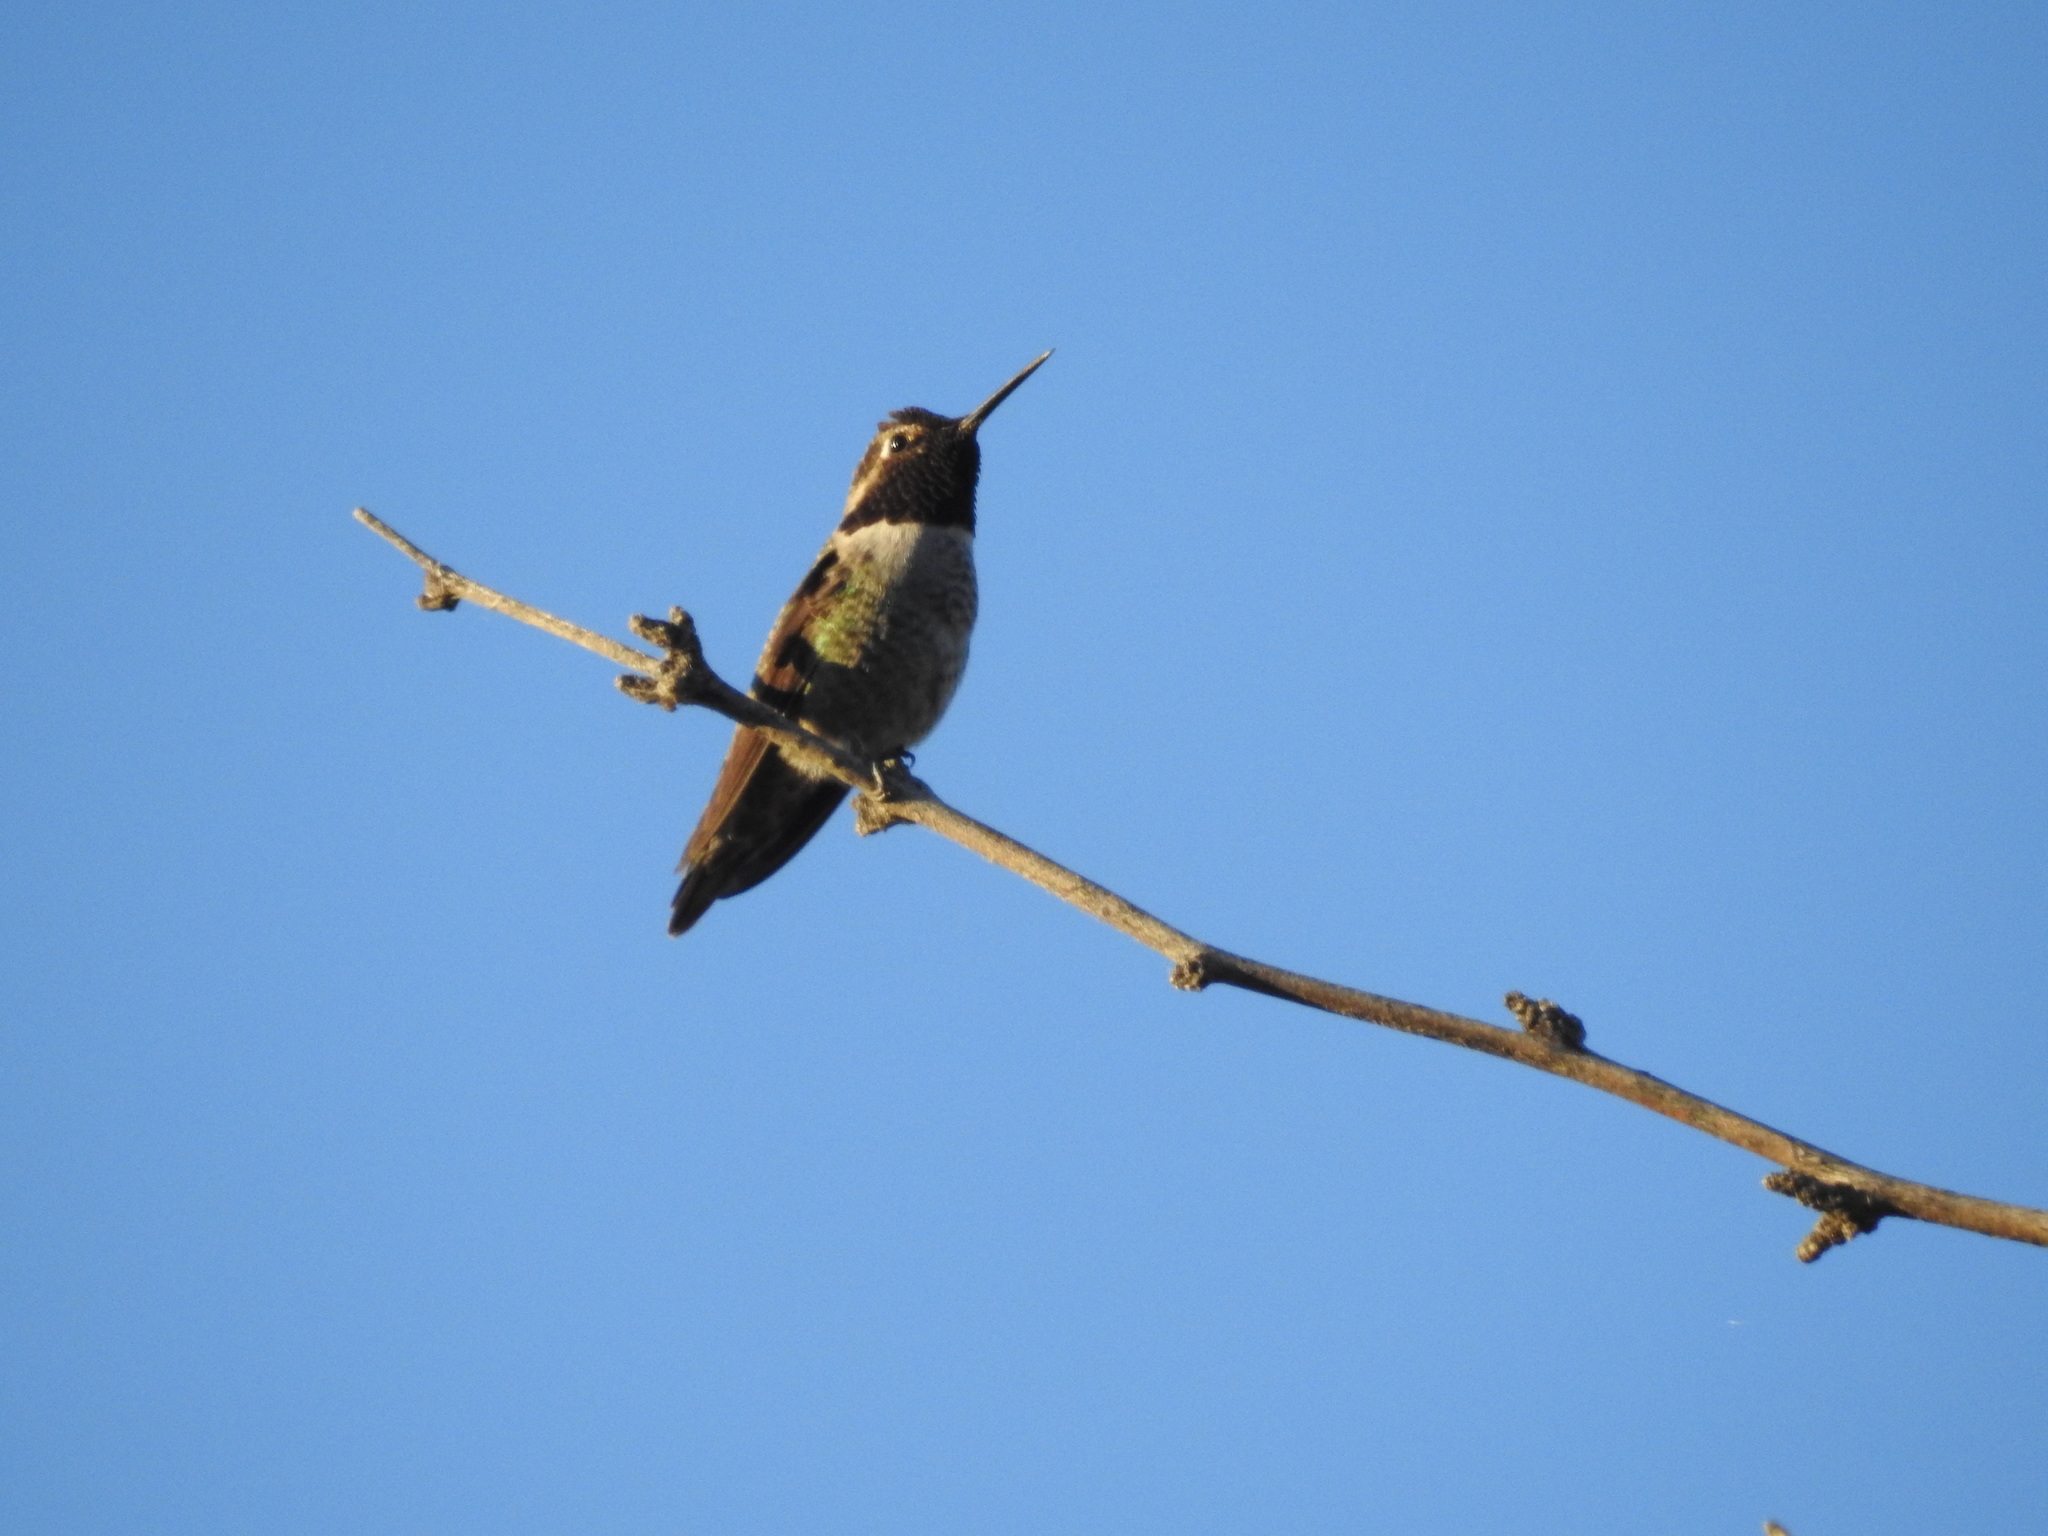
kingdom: Animalia
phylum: Chordata
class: Aves
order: Apodiformes
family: Trochilidae
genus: Calypte
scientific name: Calypte anna
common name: Anna's hummingbird
